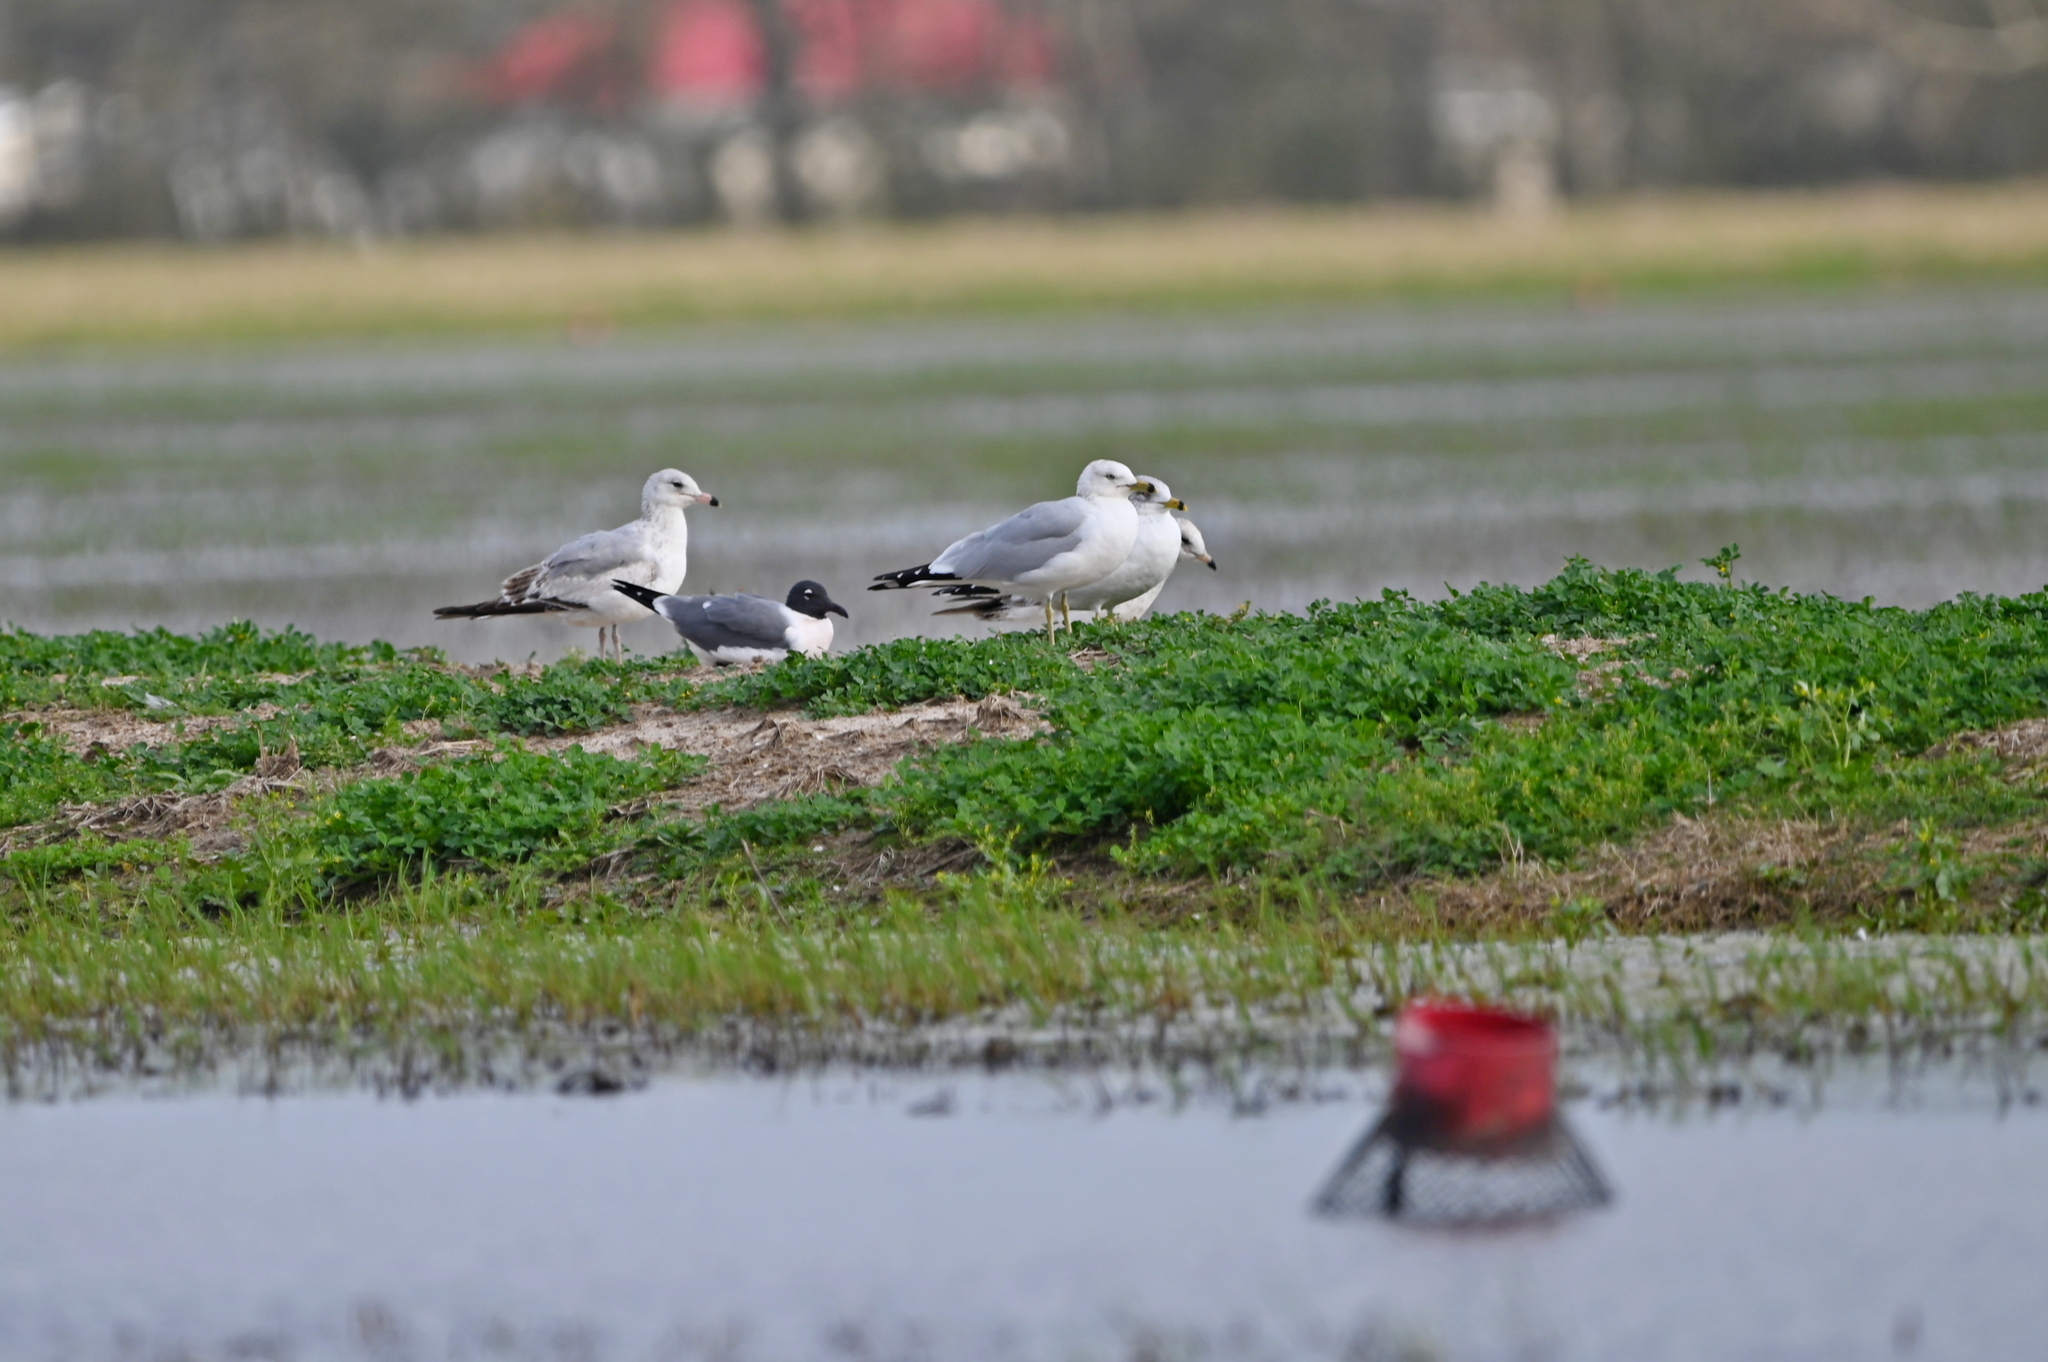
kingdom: Animalia
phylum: Chordata
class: Aves
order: Charadriiformes
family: Laridae
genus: Larus
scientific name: Larus delawarensis
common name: Ring-billed gull
